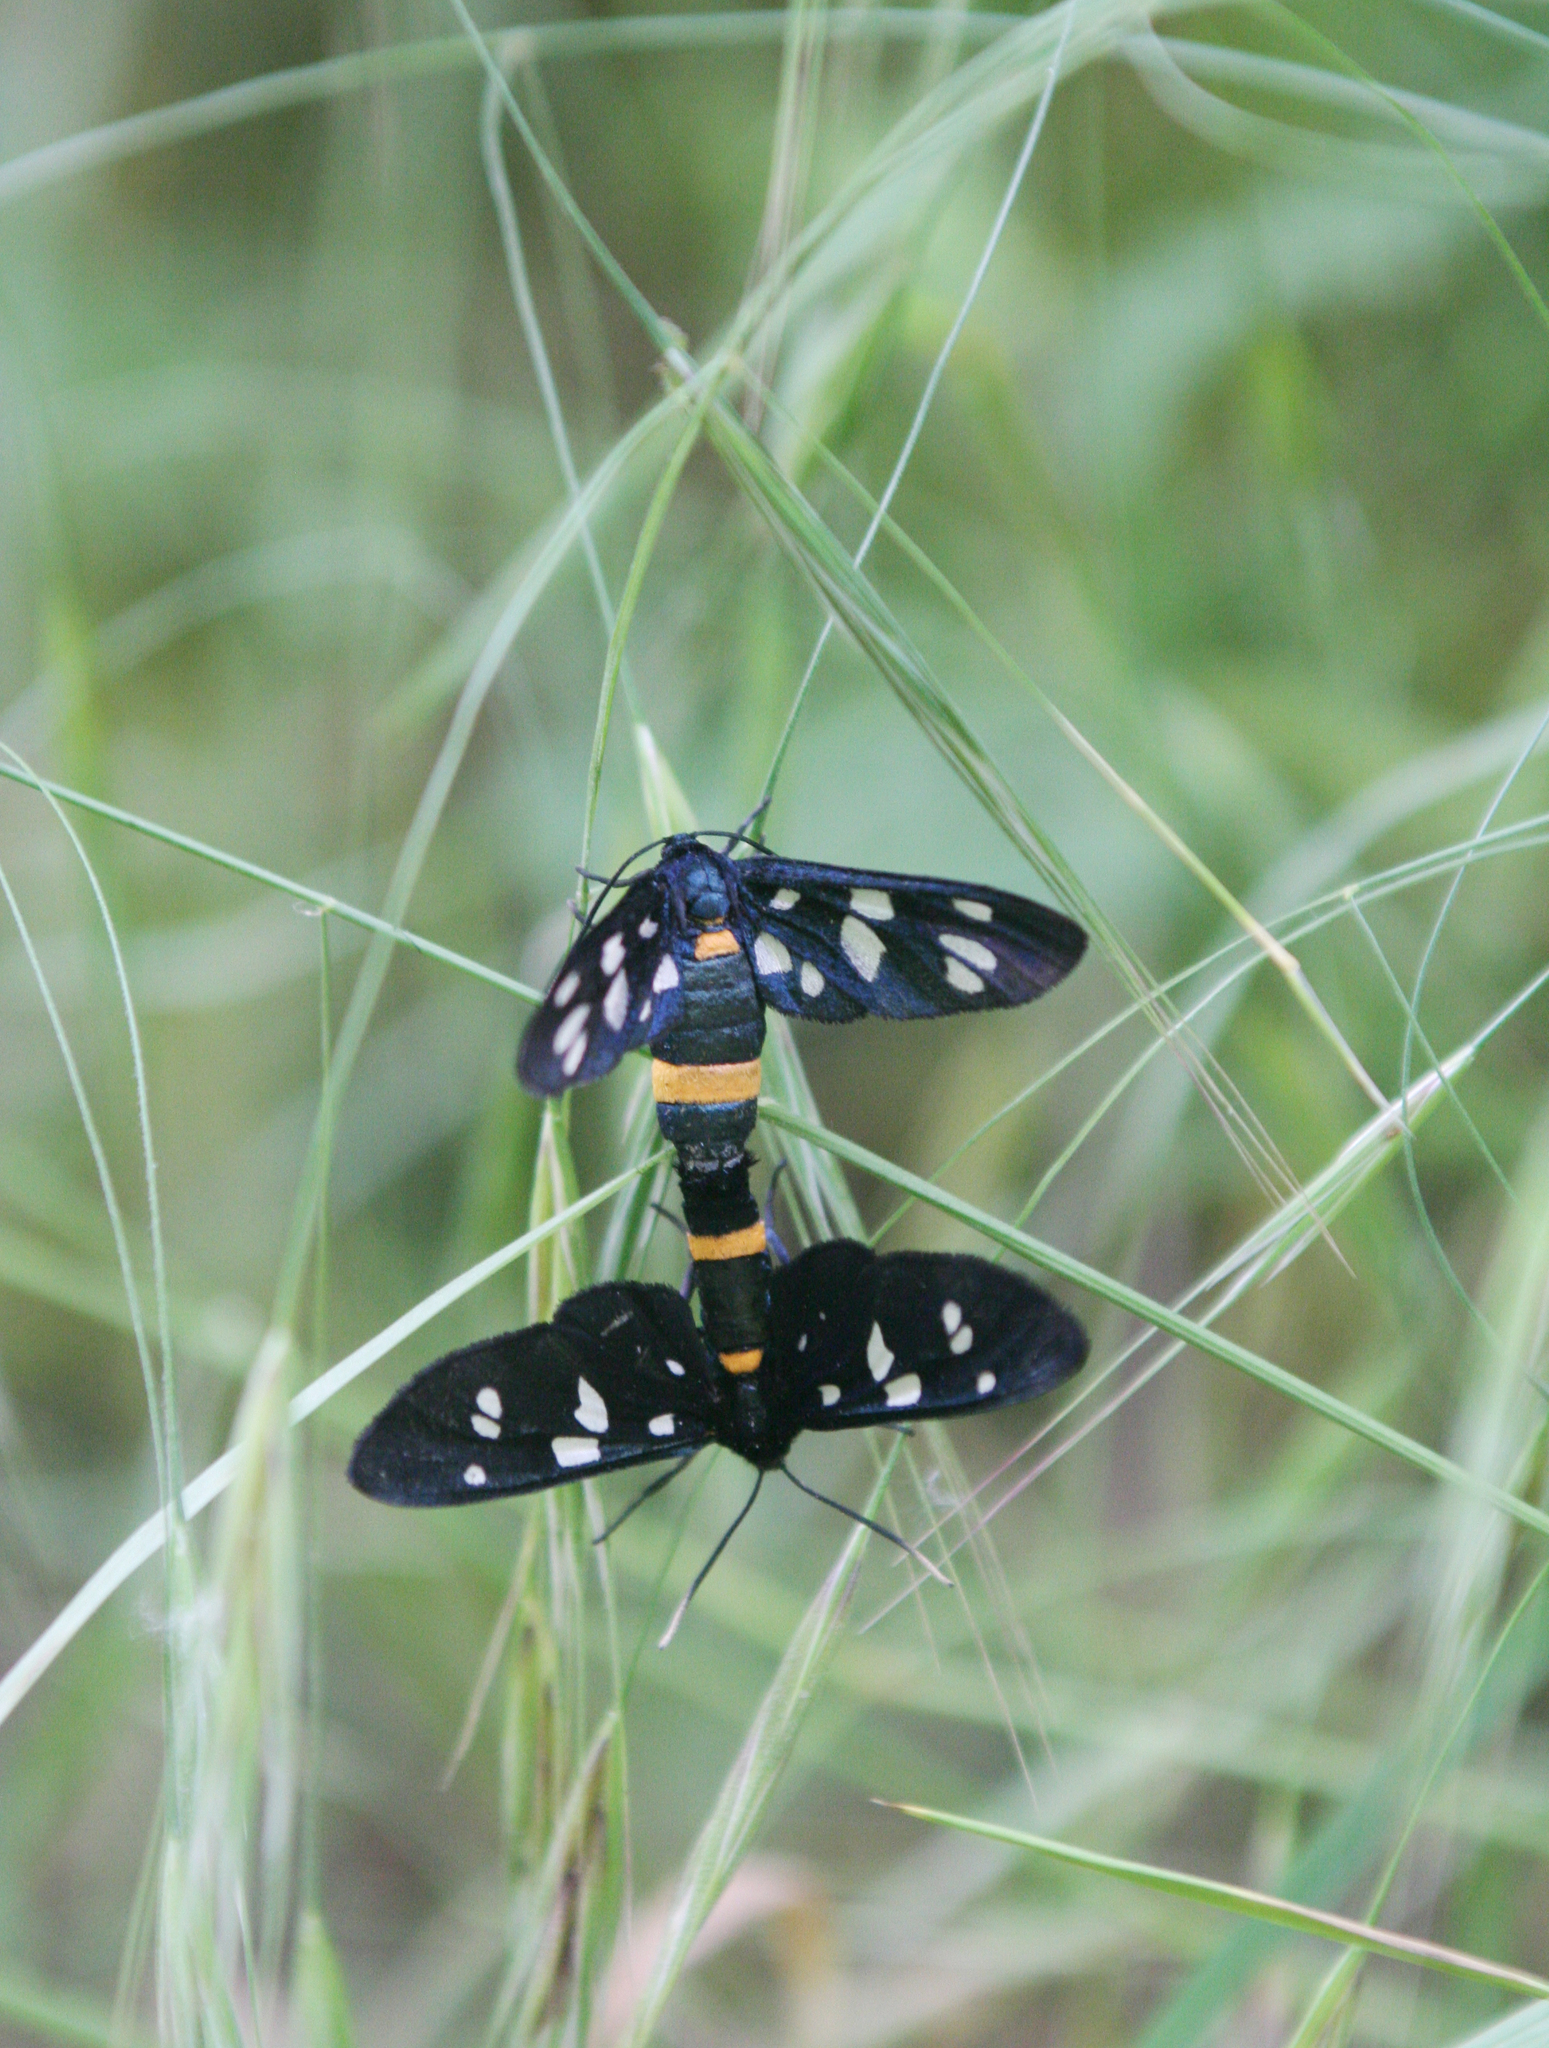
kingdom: Animalia
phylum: Arthropoda
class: Insecta
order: Lepidoptera
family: Erebidae
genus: Amata
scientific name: Amata nigricornis
